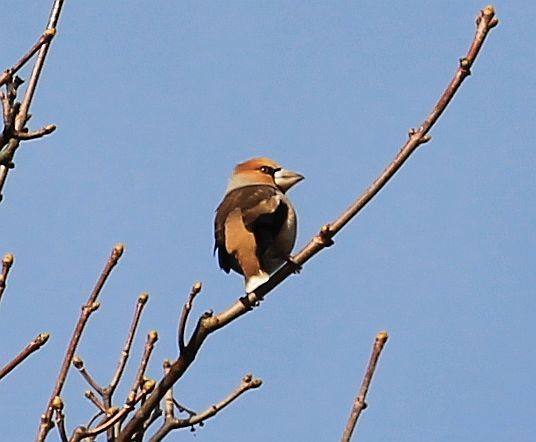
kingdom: Animalia
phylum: Chordata
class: Aves
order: Passeriformes
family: Fringillidae
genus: Coccothraustes
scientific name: Coccothraustes coccothraustes
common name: Hawfinch
